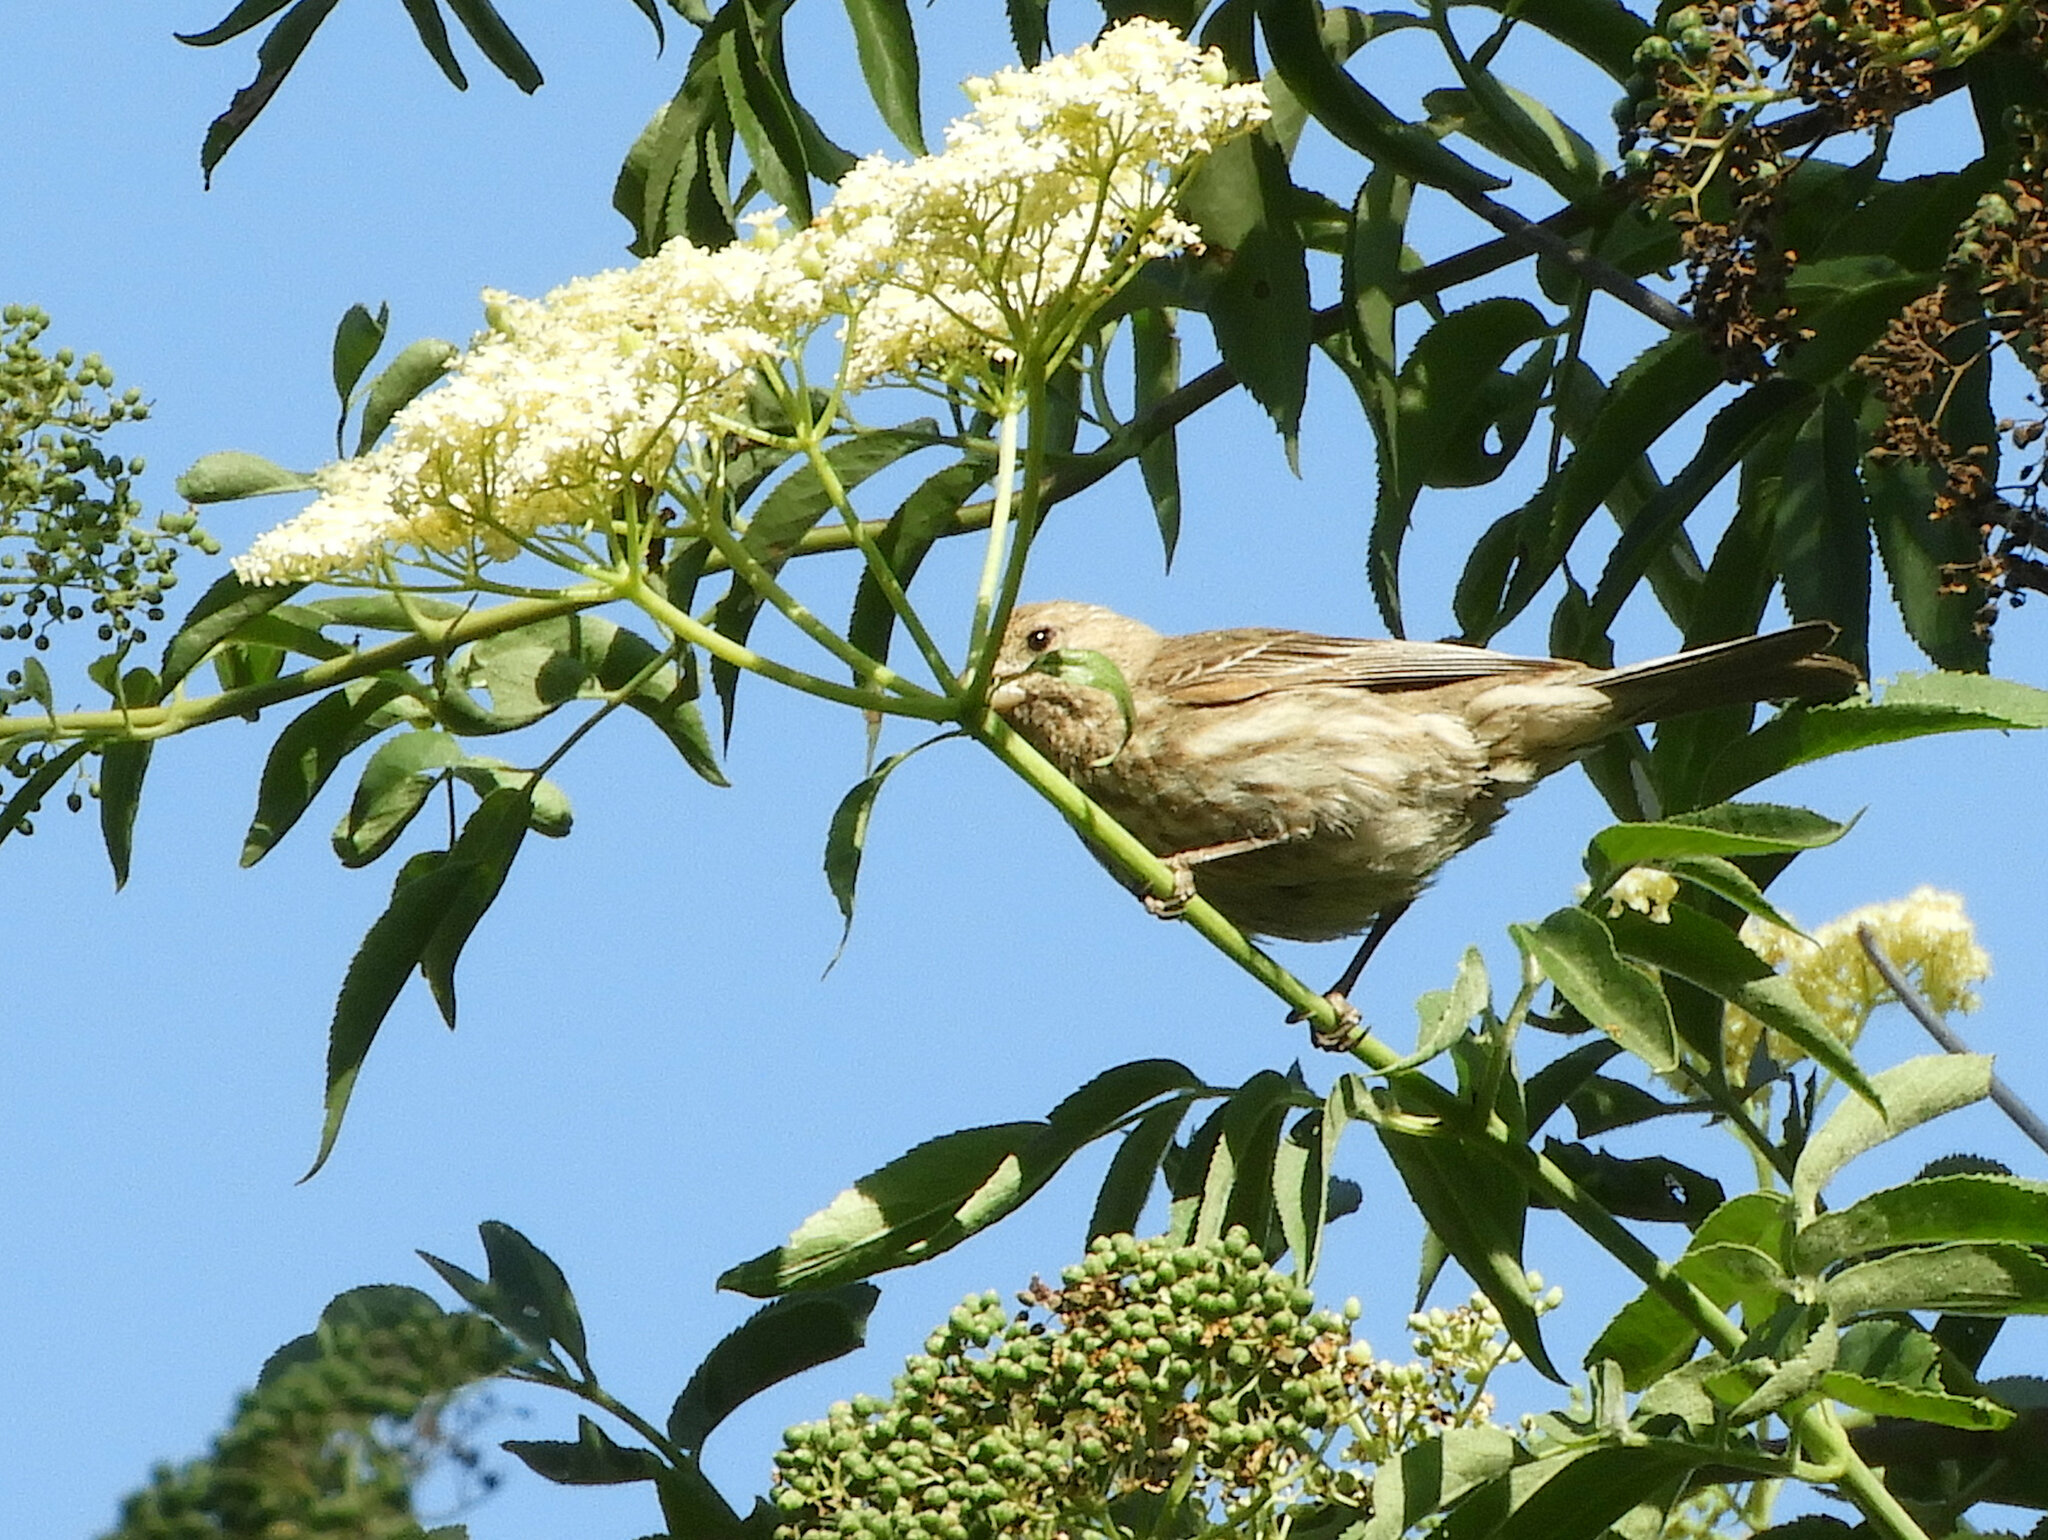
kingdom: Animalia
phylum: Chordata
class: Aves
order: Passeriformes
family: Fringillidae
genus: Haemorhous
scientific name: Haemorhous mexicanus
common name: House finch
